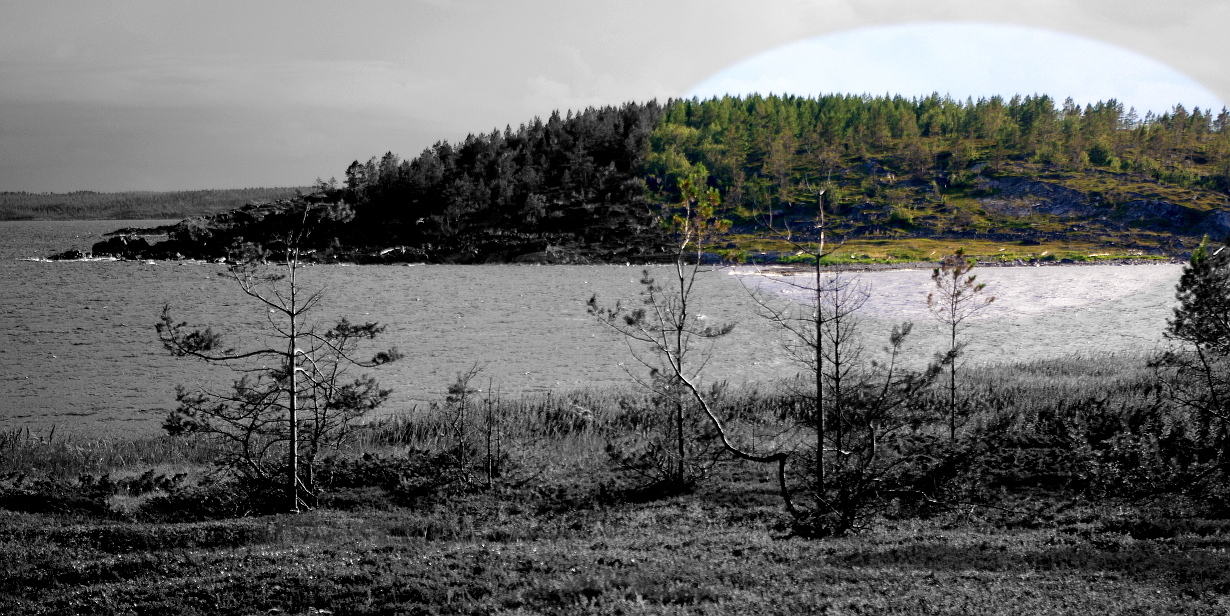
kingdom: Plantae
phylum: Tracheophyta
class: Pinopsida
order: Pinales
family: Pinaceae
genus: Pinus
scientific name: Pinus sylvestris
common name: Scots pine
